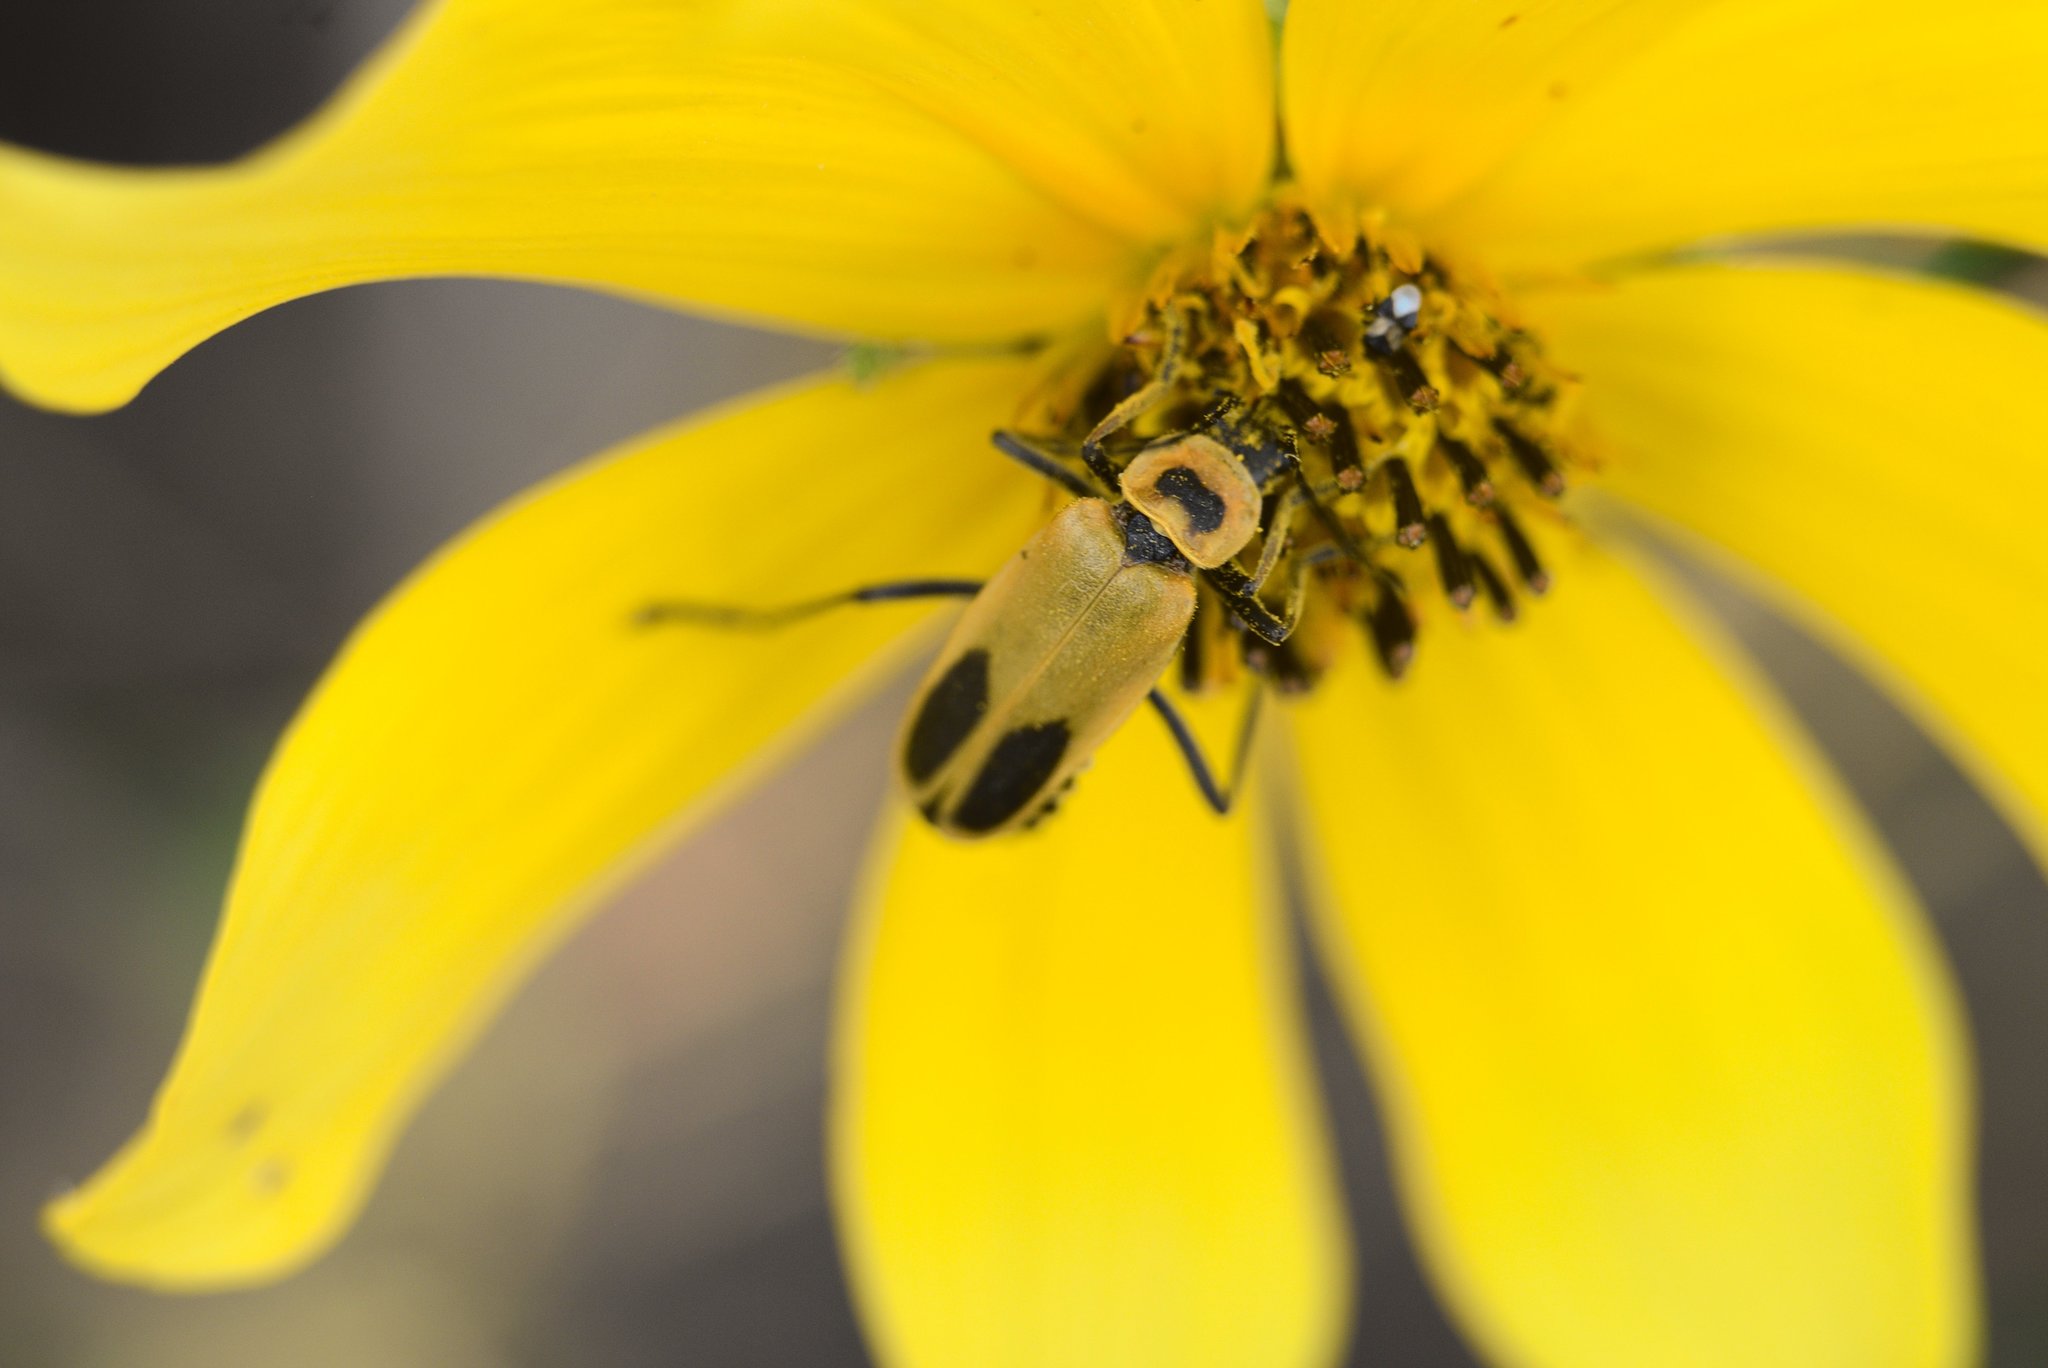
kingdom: Animalia
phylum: Arthropoda
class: Insecta
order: Coleoptera
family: Cantharidae
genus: Chauliognathus
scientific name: Chauliognathus pensylvanicus
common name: Goldenrod soldier beetle
